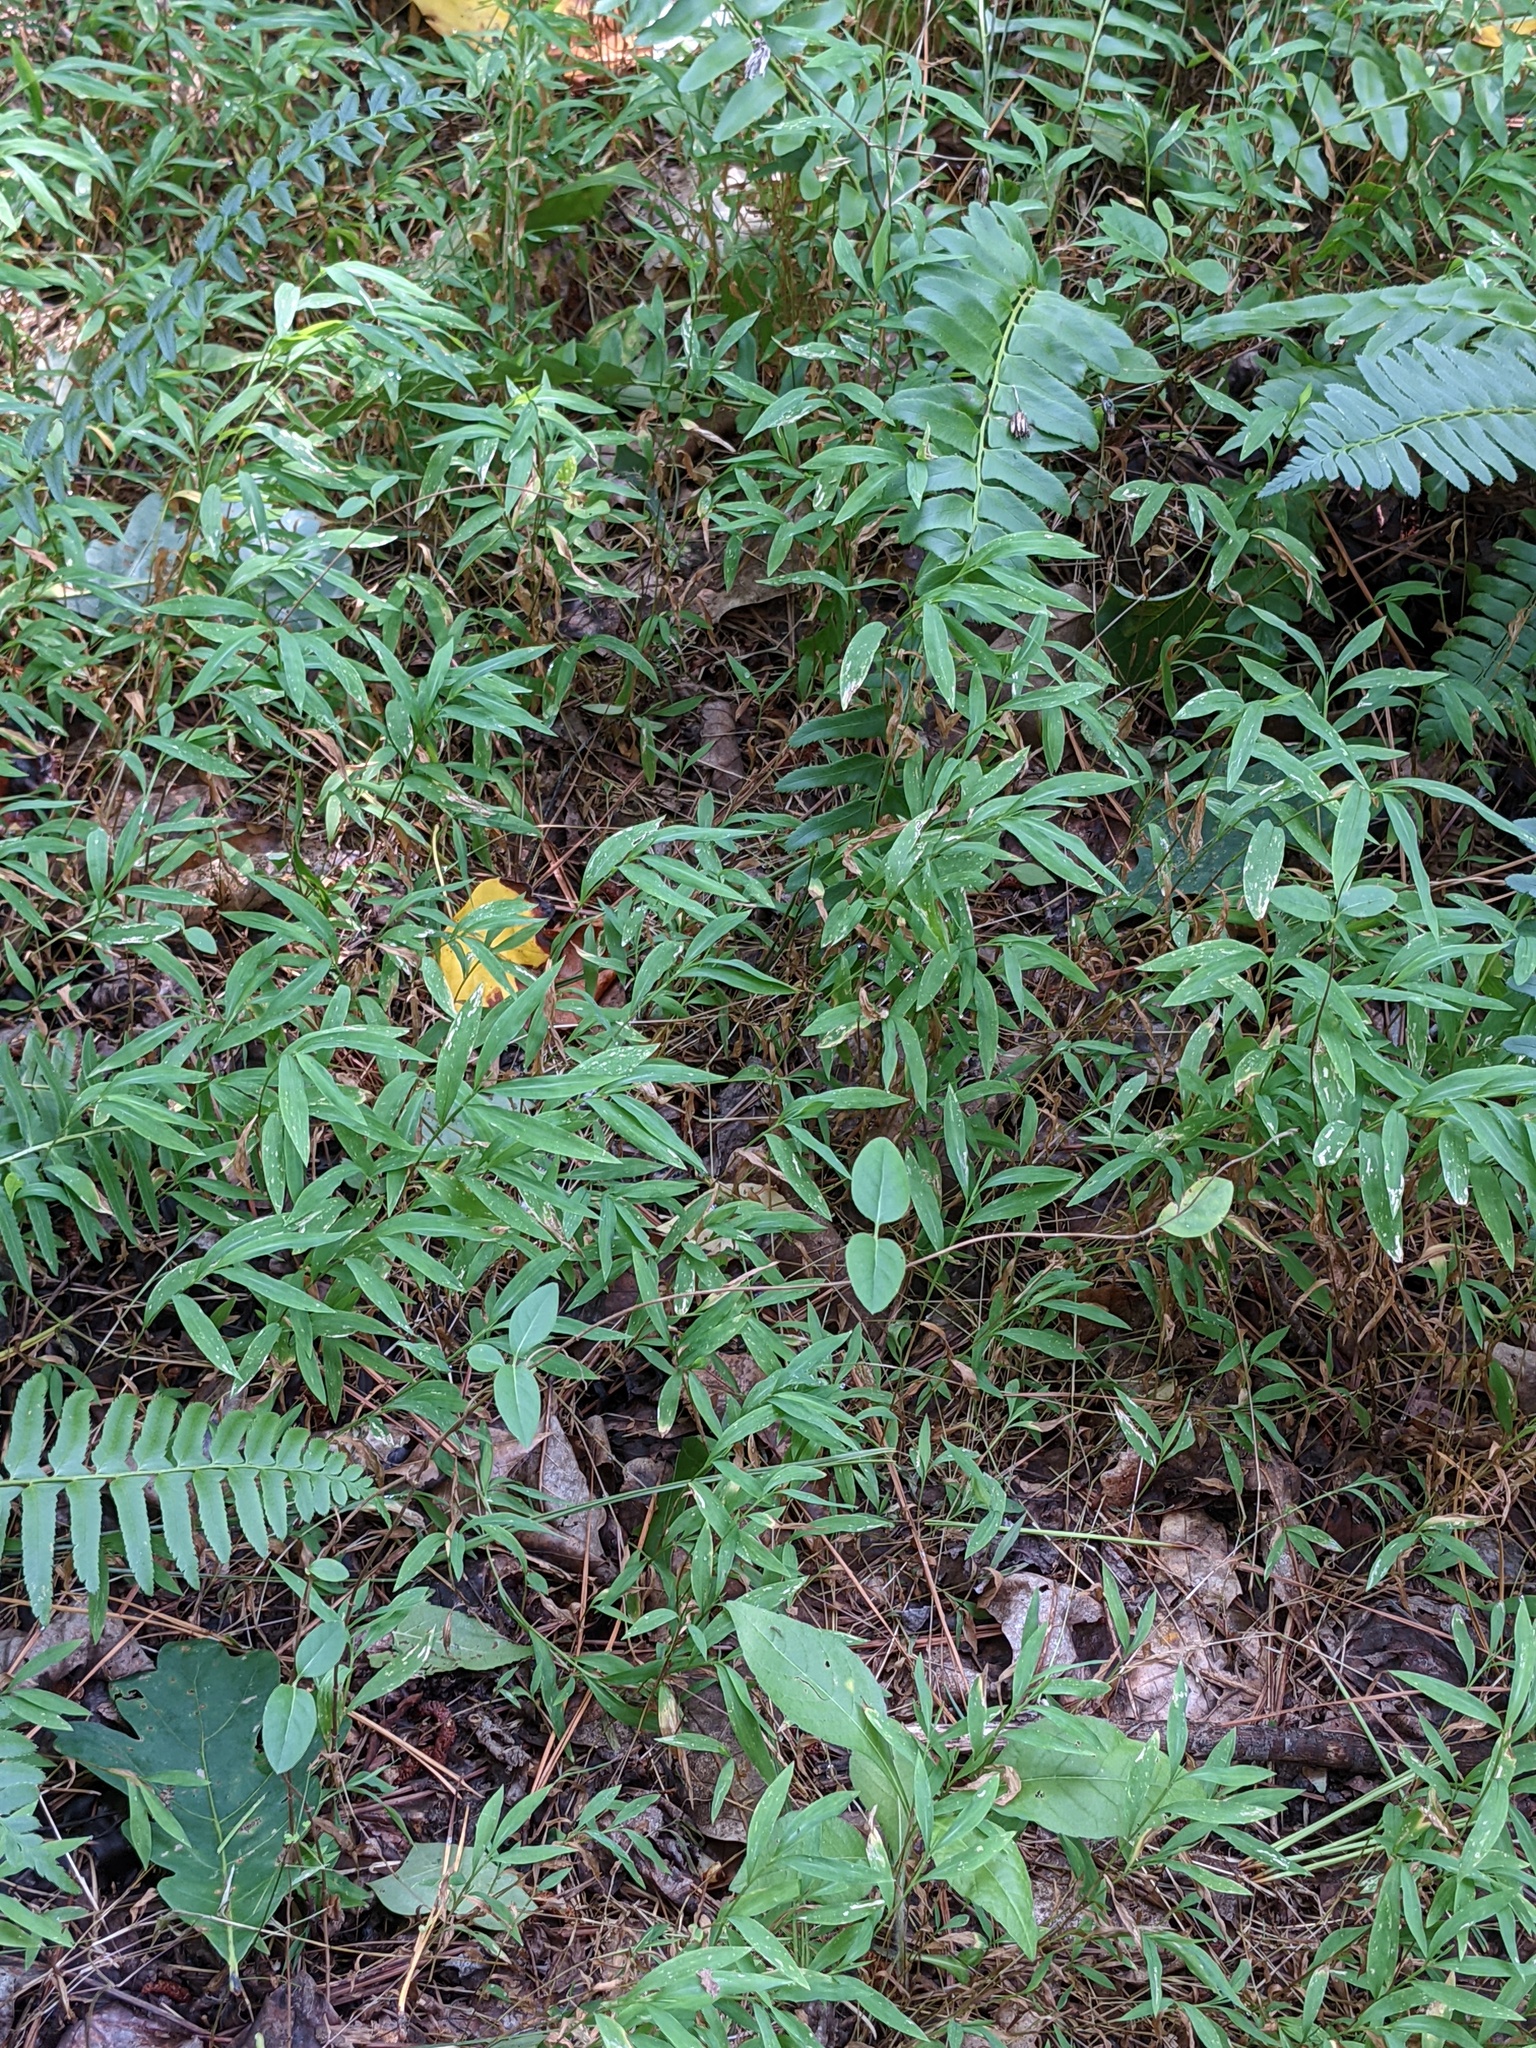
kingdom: Plantae
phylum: Tracheophyta
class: Liliopsida
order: Poales
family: Poaceae
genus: Microstegium
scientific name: Microstegium vimineum
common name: Japanese stiltgrass
